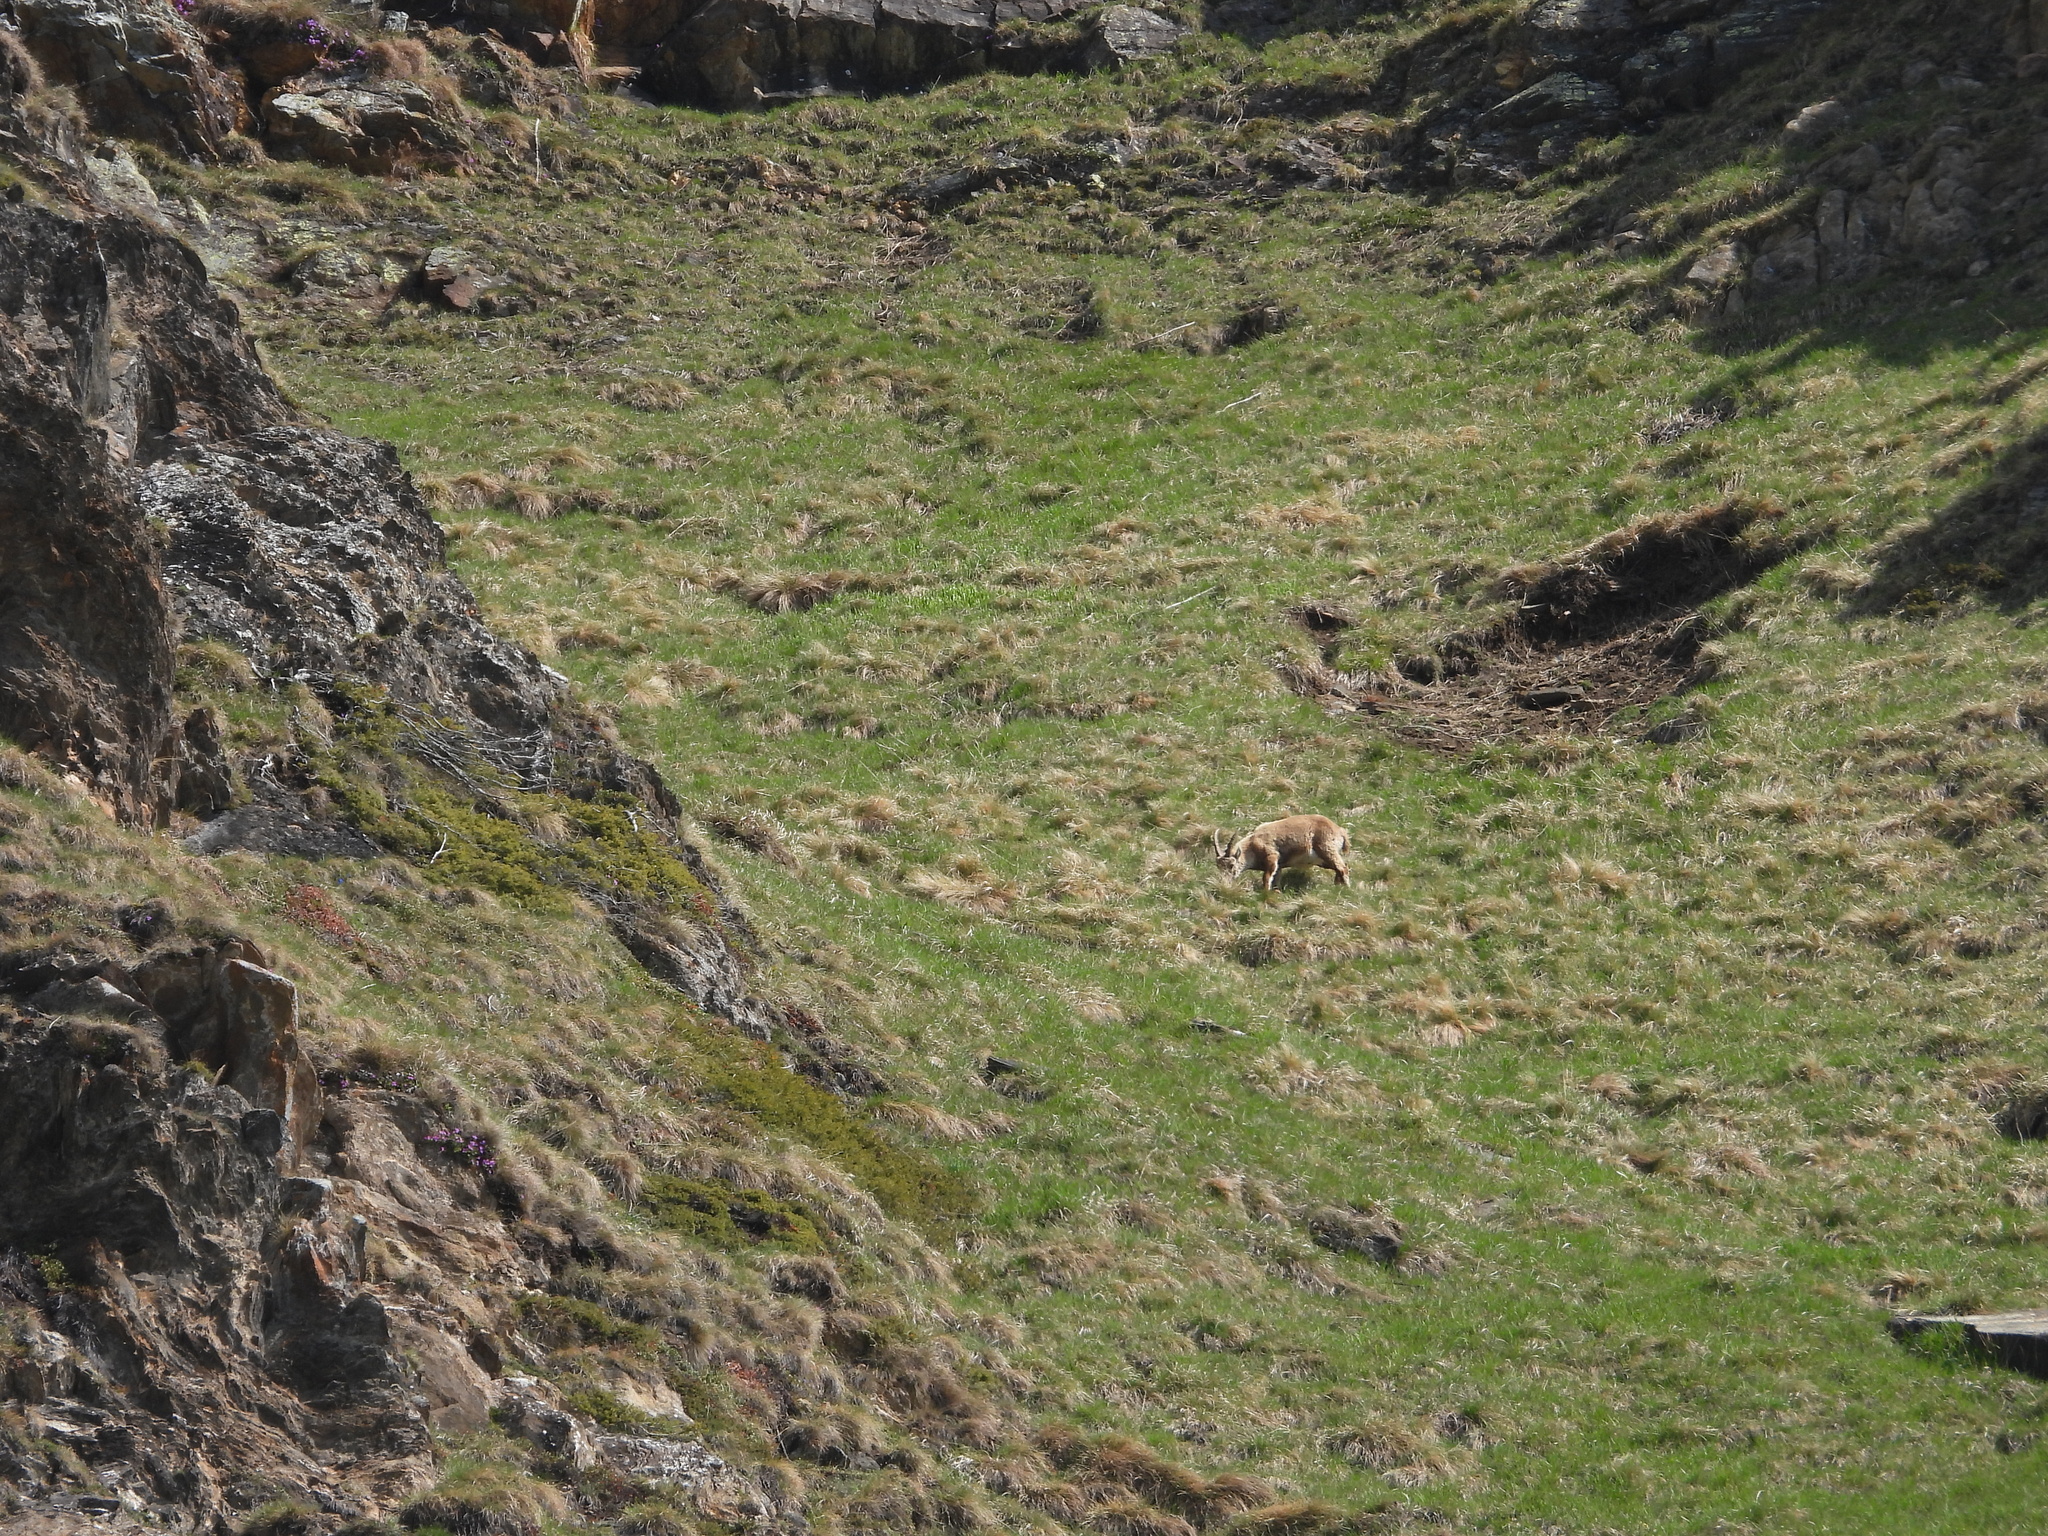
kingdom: Animalia
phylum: Chordata
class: Mammalia
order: Artiodactyla
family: Bovidae
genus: Capra
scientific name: Capra ibex
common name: Alpine ibex
